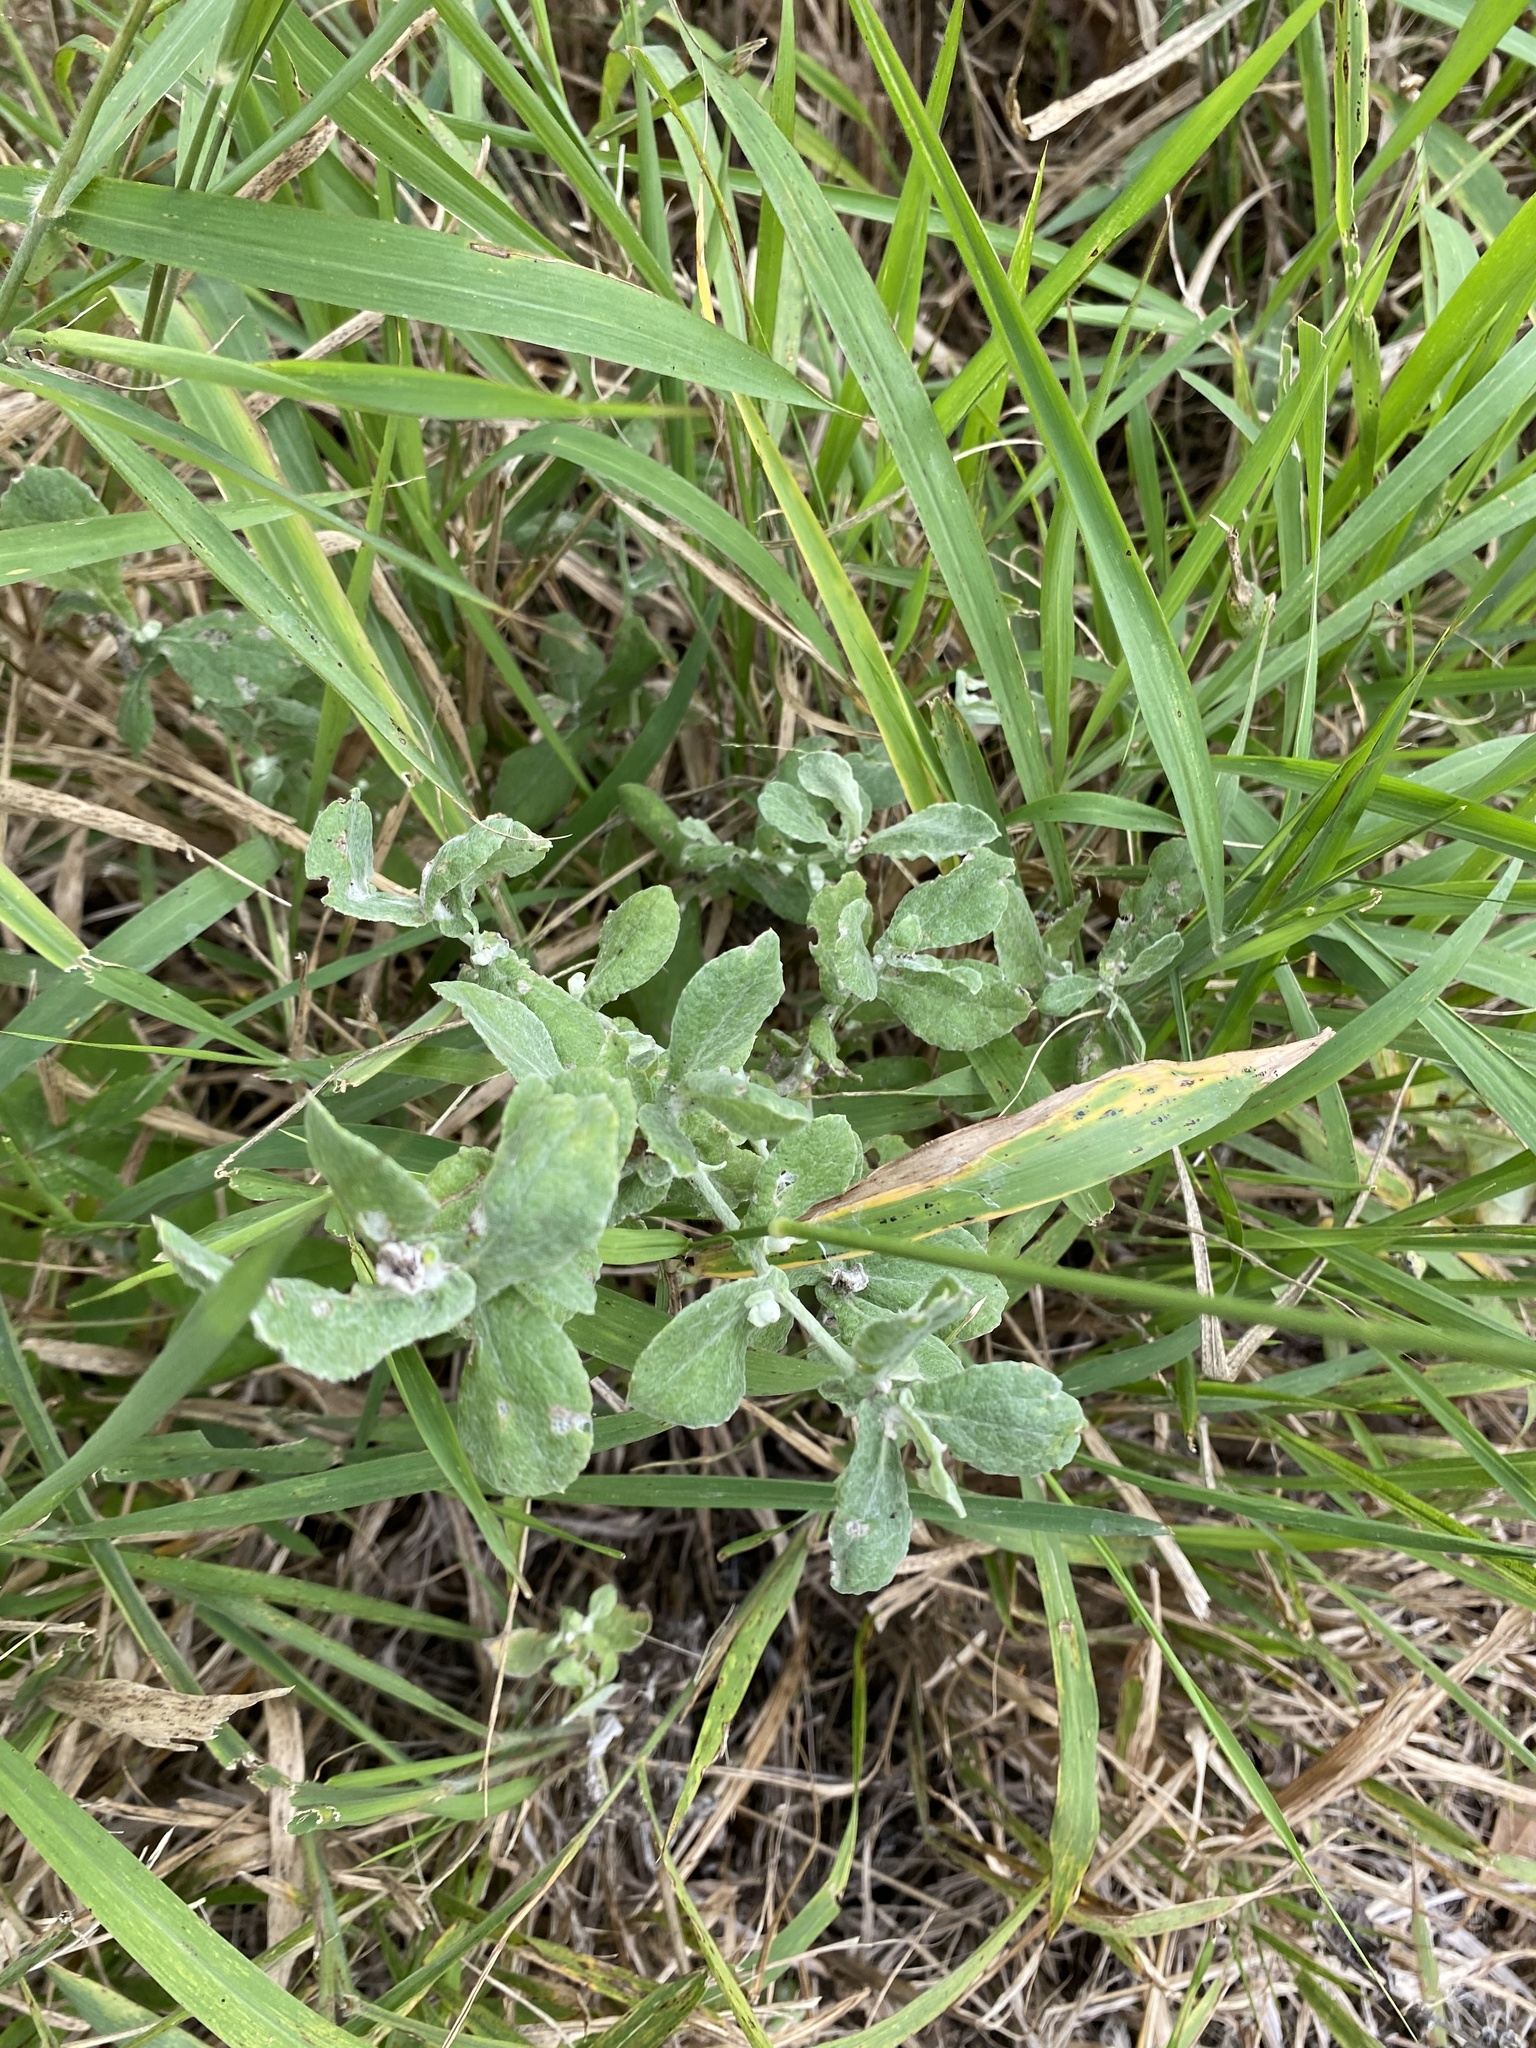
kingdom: Plantae
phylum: Tracheophyta
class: Magnoliopsida
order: Asterales
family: Asteraceae
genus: Helichrysum
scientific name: Helichrysum panduratum
